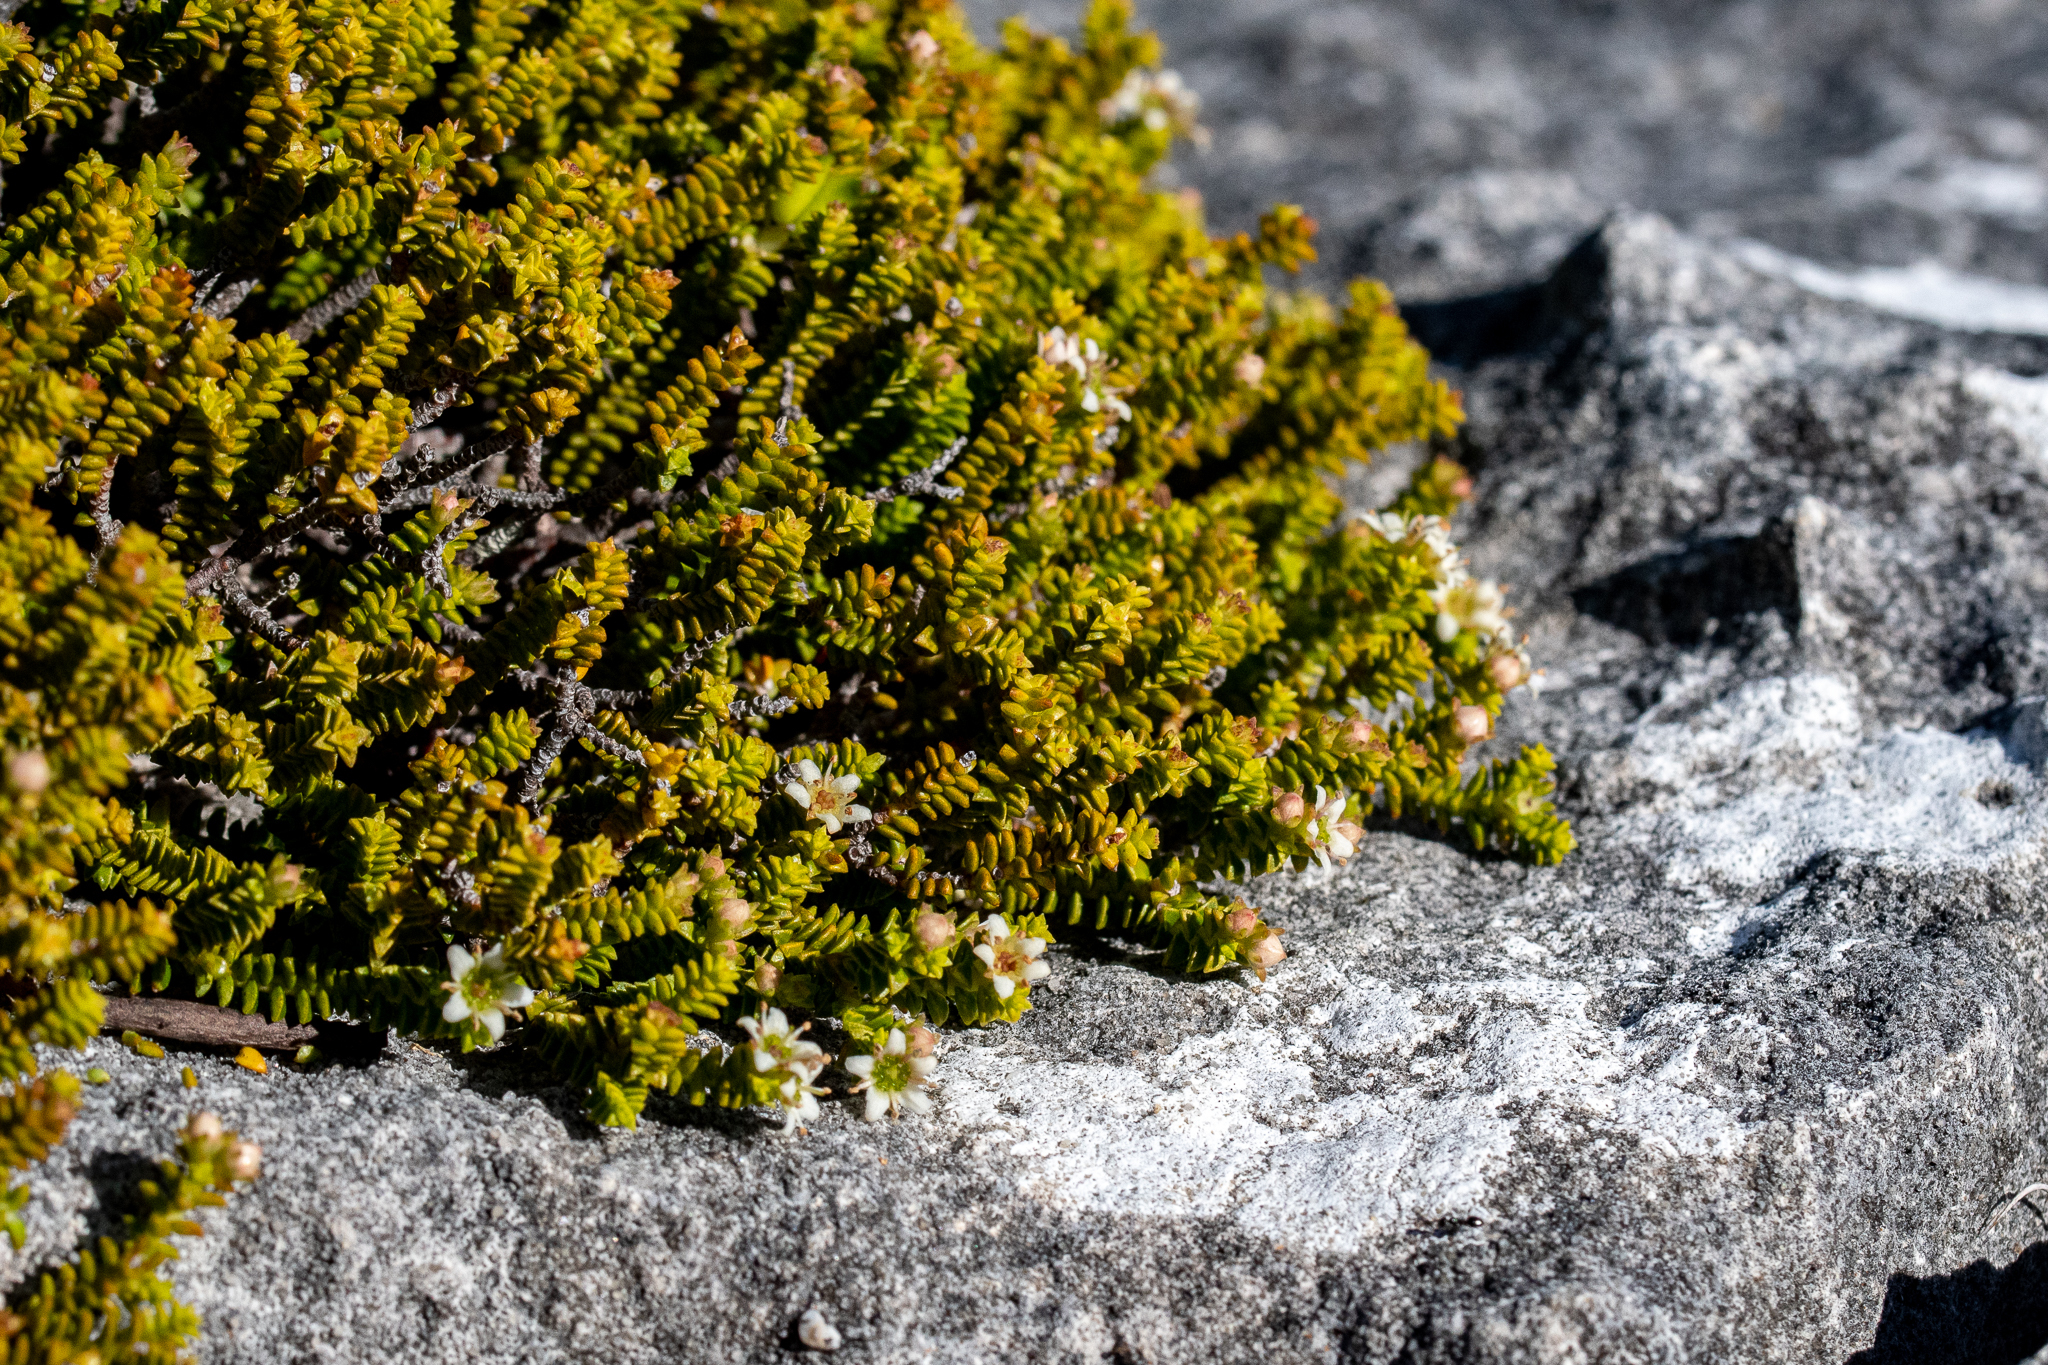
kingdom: Plantae
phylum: Tracheophyta
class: Magnoliopsida
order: Sapindales
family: Rutaceae
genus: Diosma
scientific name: Diosma haelkraalensis
